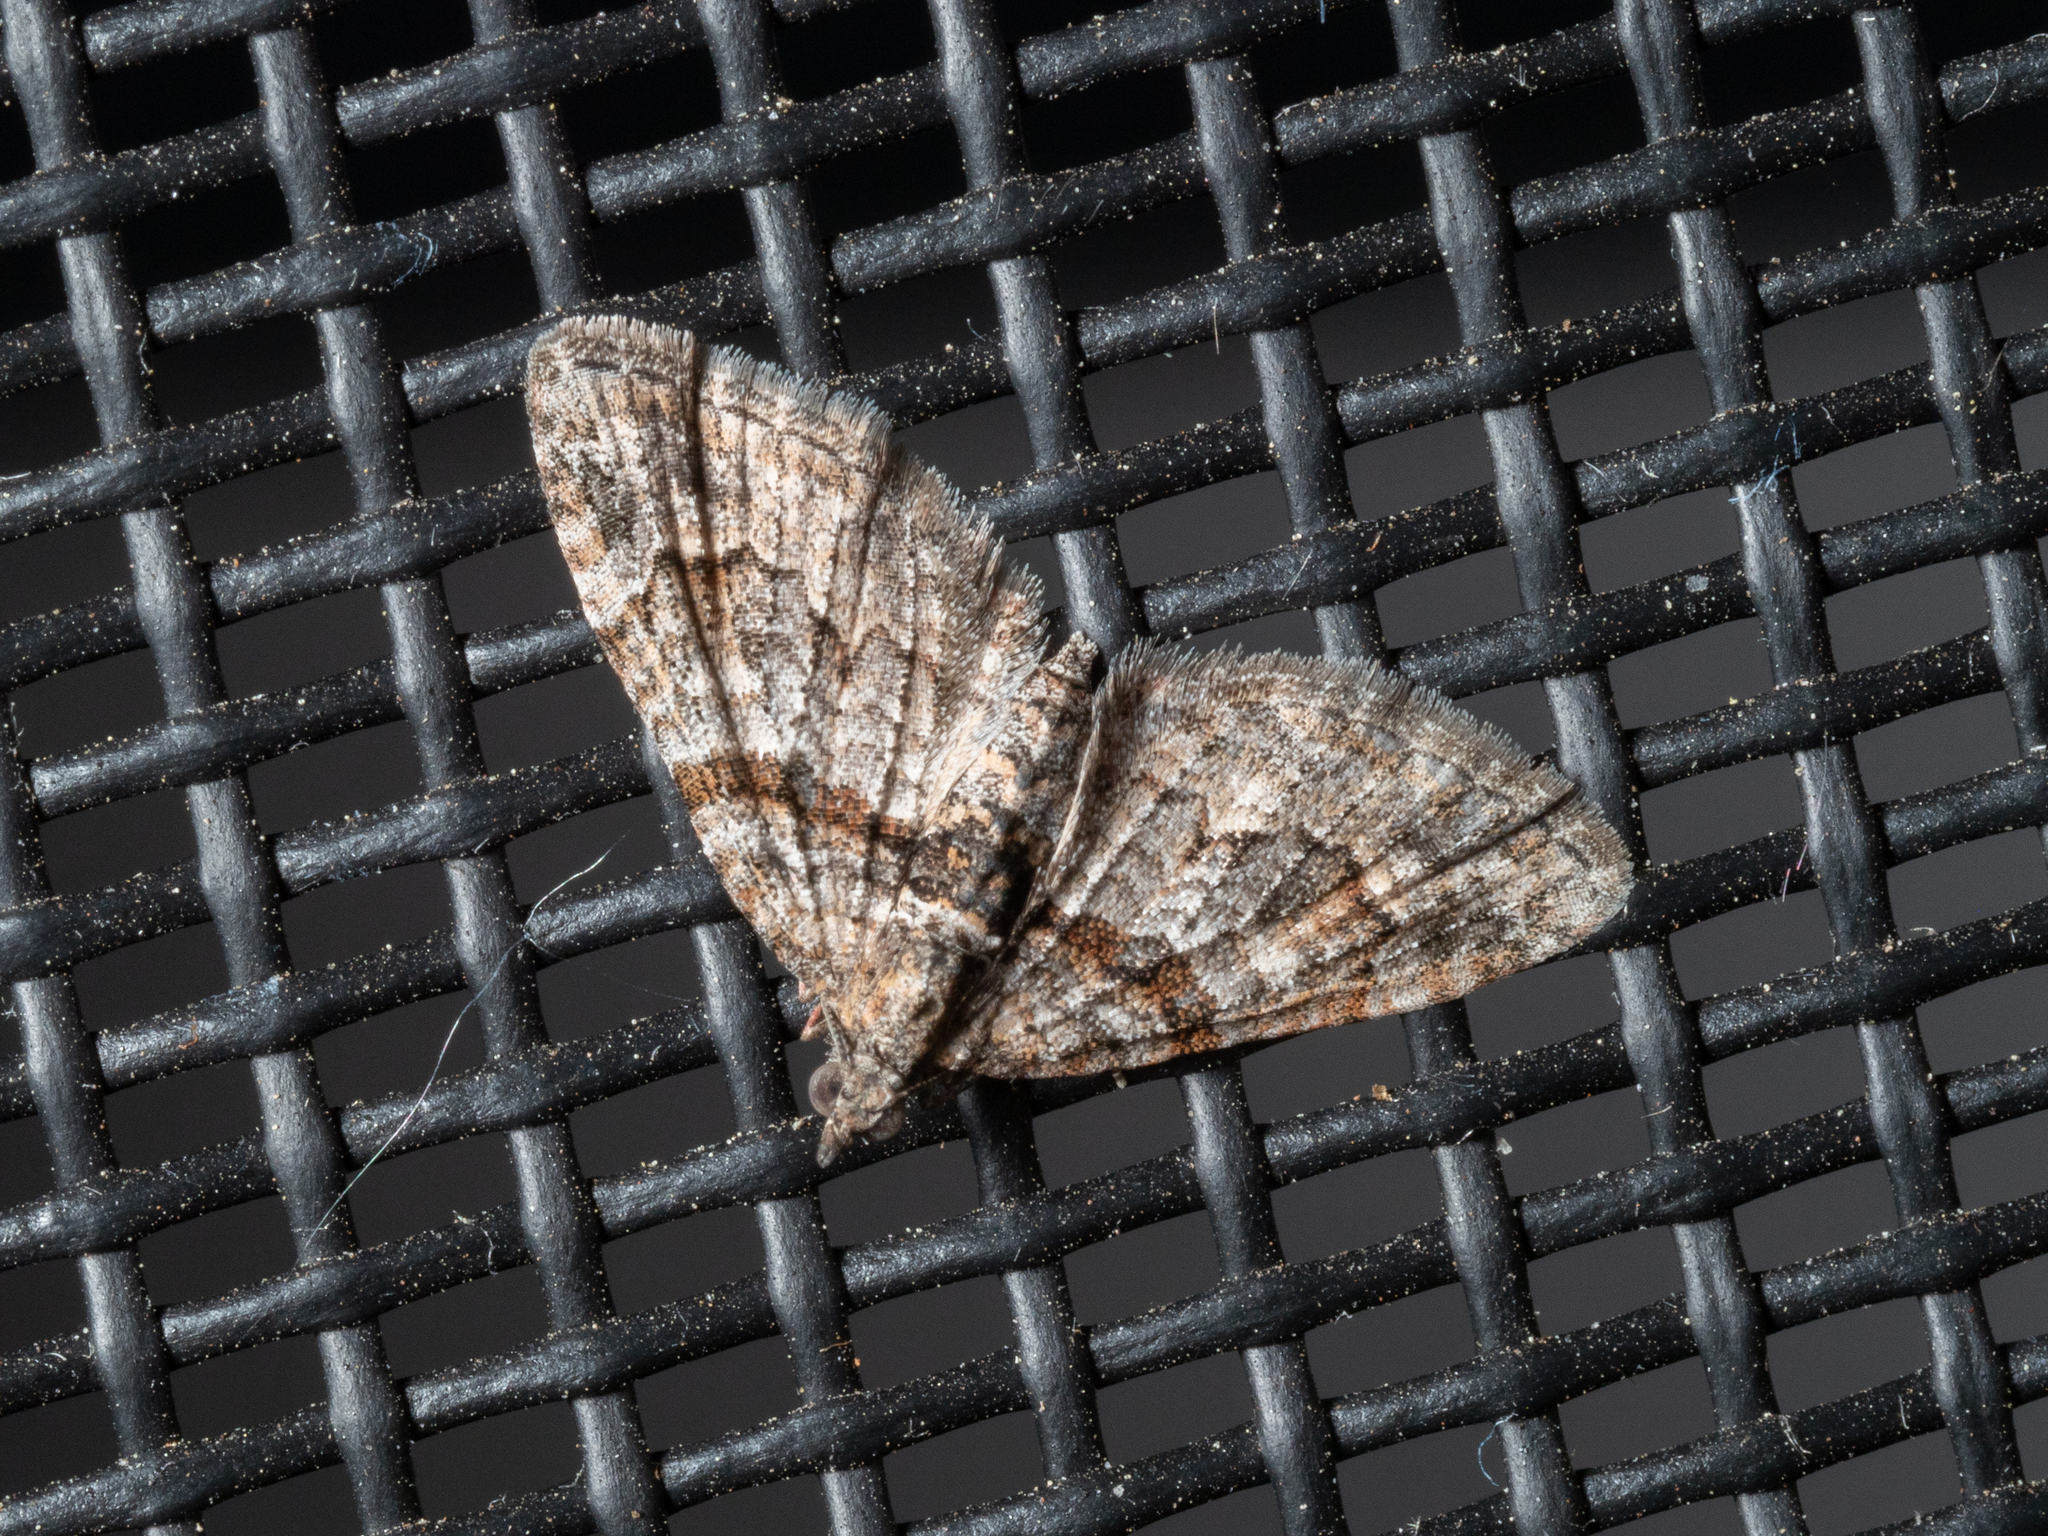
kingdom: Animalia
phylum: Arthropoda
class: Insecta
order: Lepidoptera
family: Geometridae
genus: Phrissogonus
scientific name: Phrissogonus laticostata
